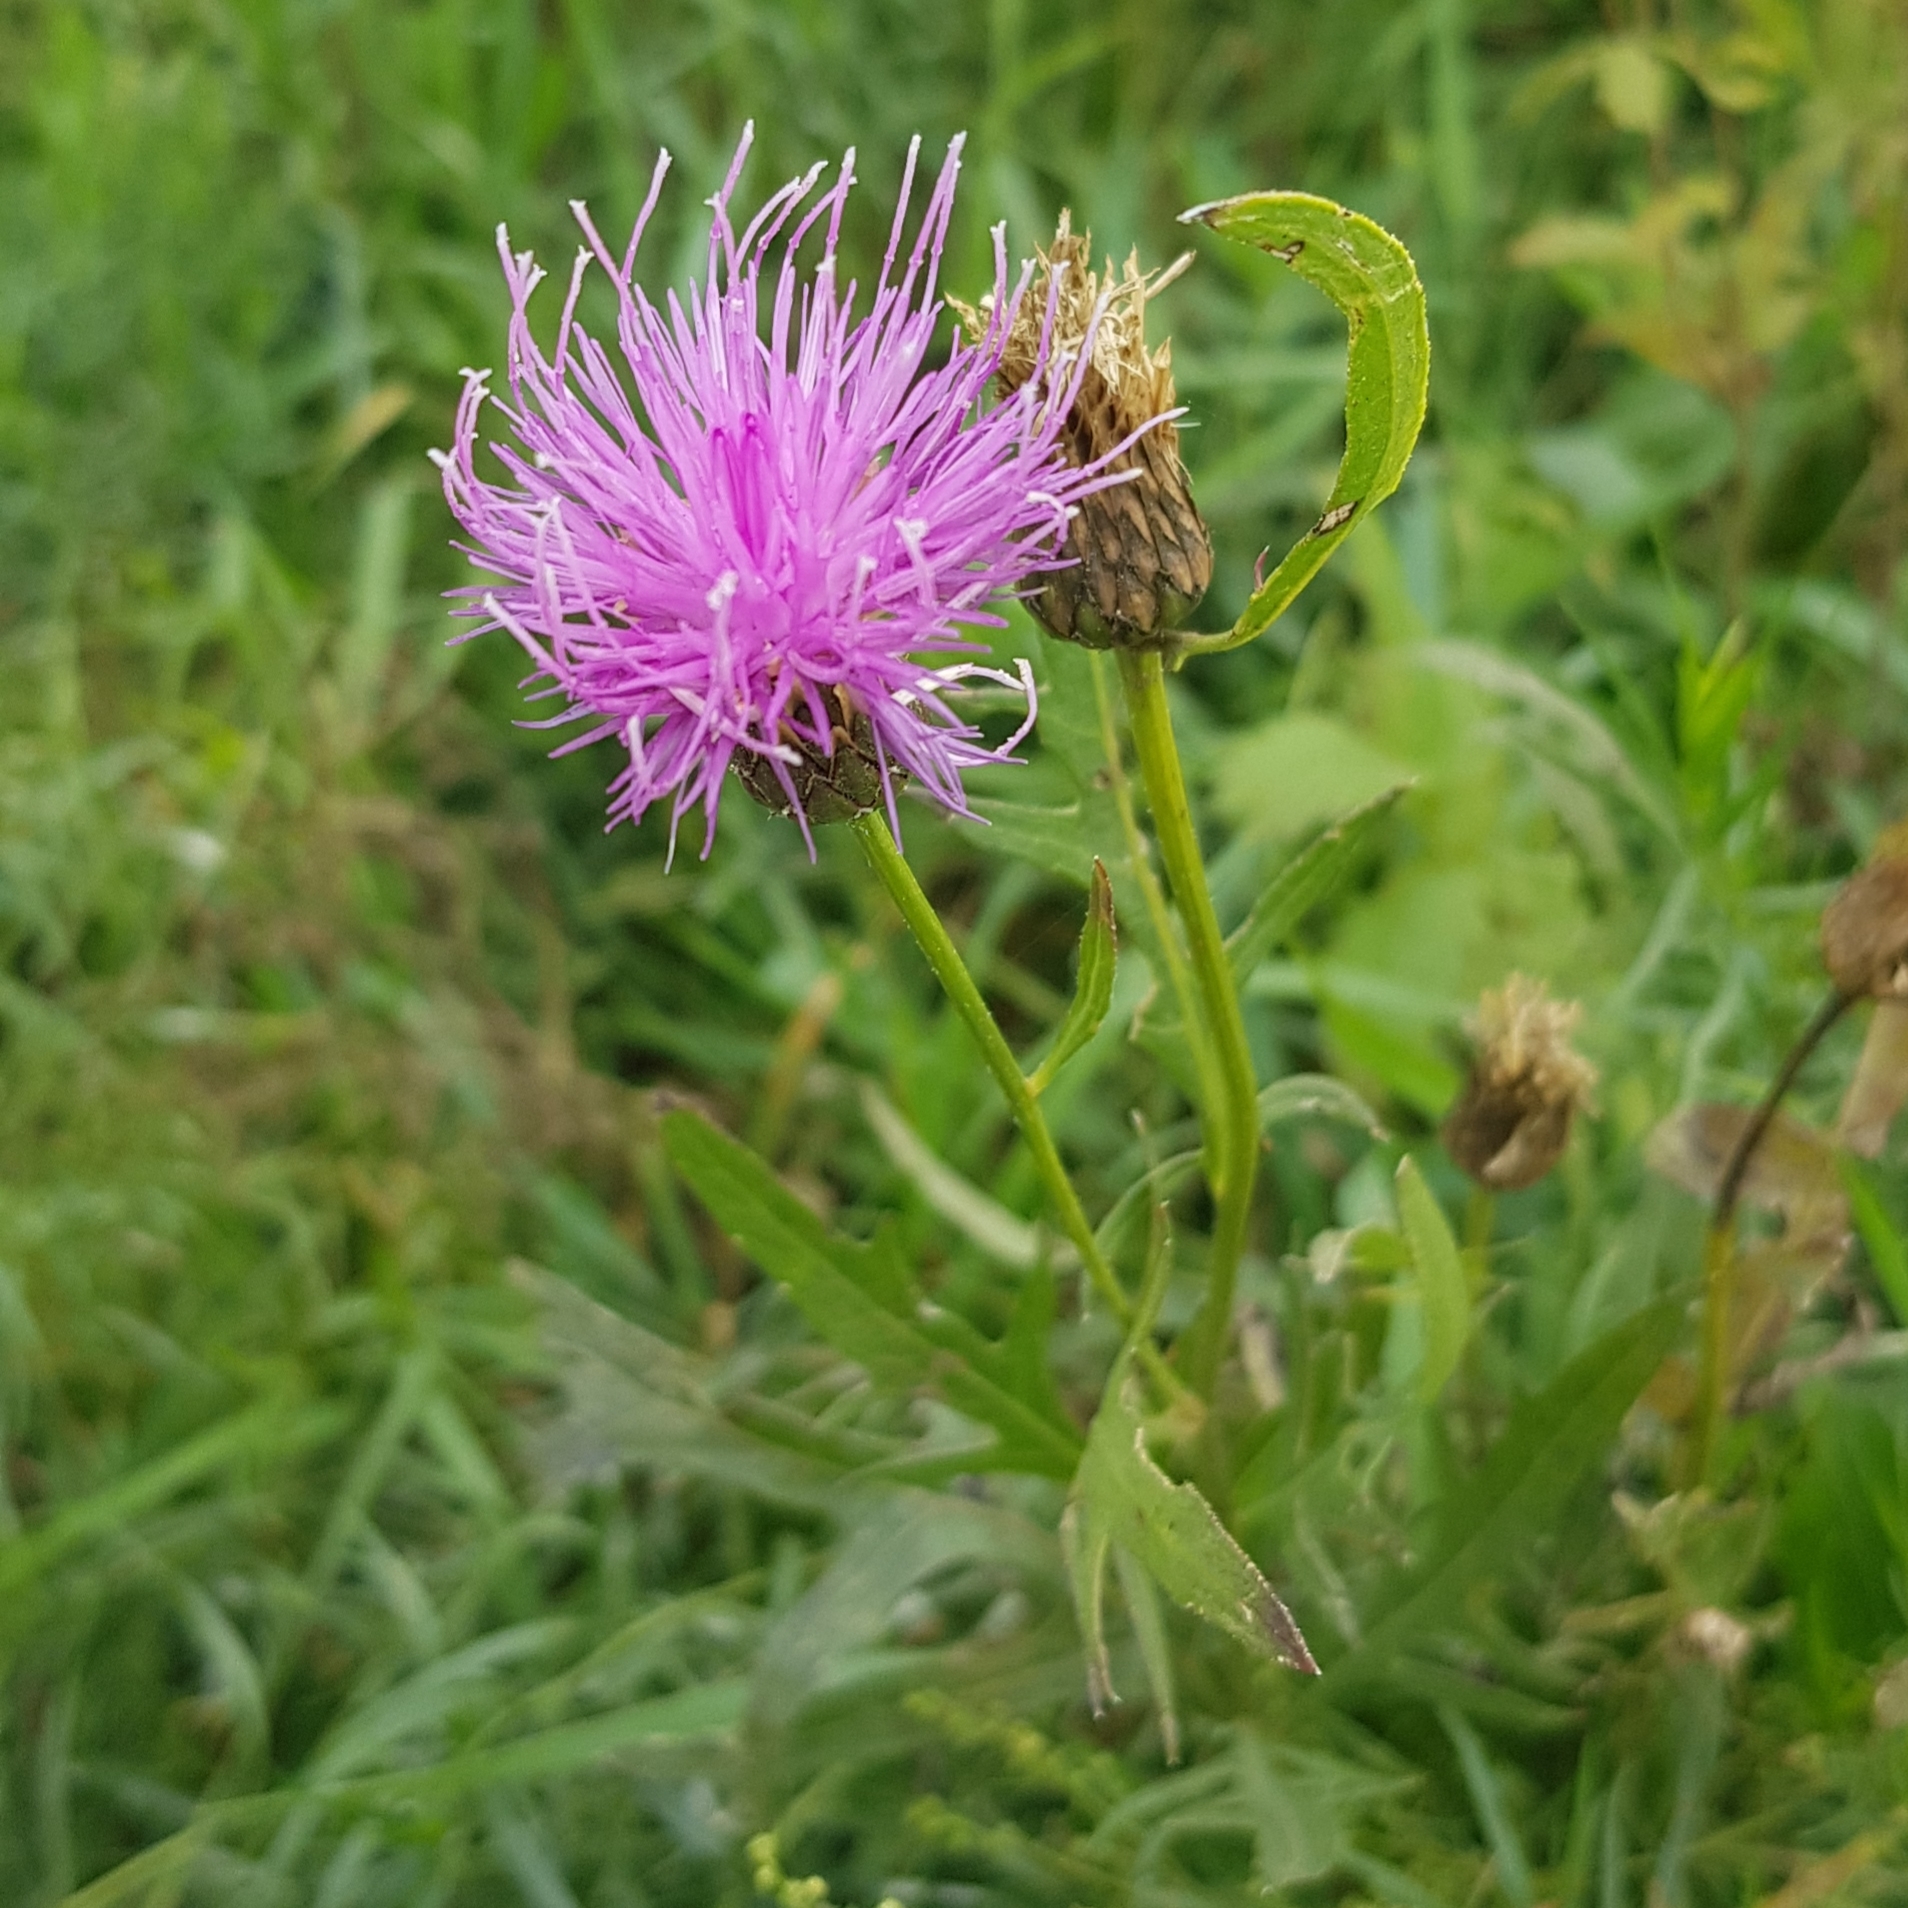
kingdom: Plantae
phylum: Tracheophyta
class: Magnoliopsida
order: Asterales
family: Asteraceae
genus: Klasea
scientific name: Klasea centauroides
